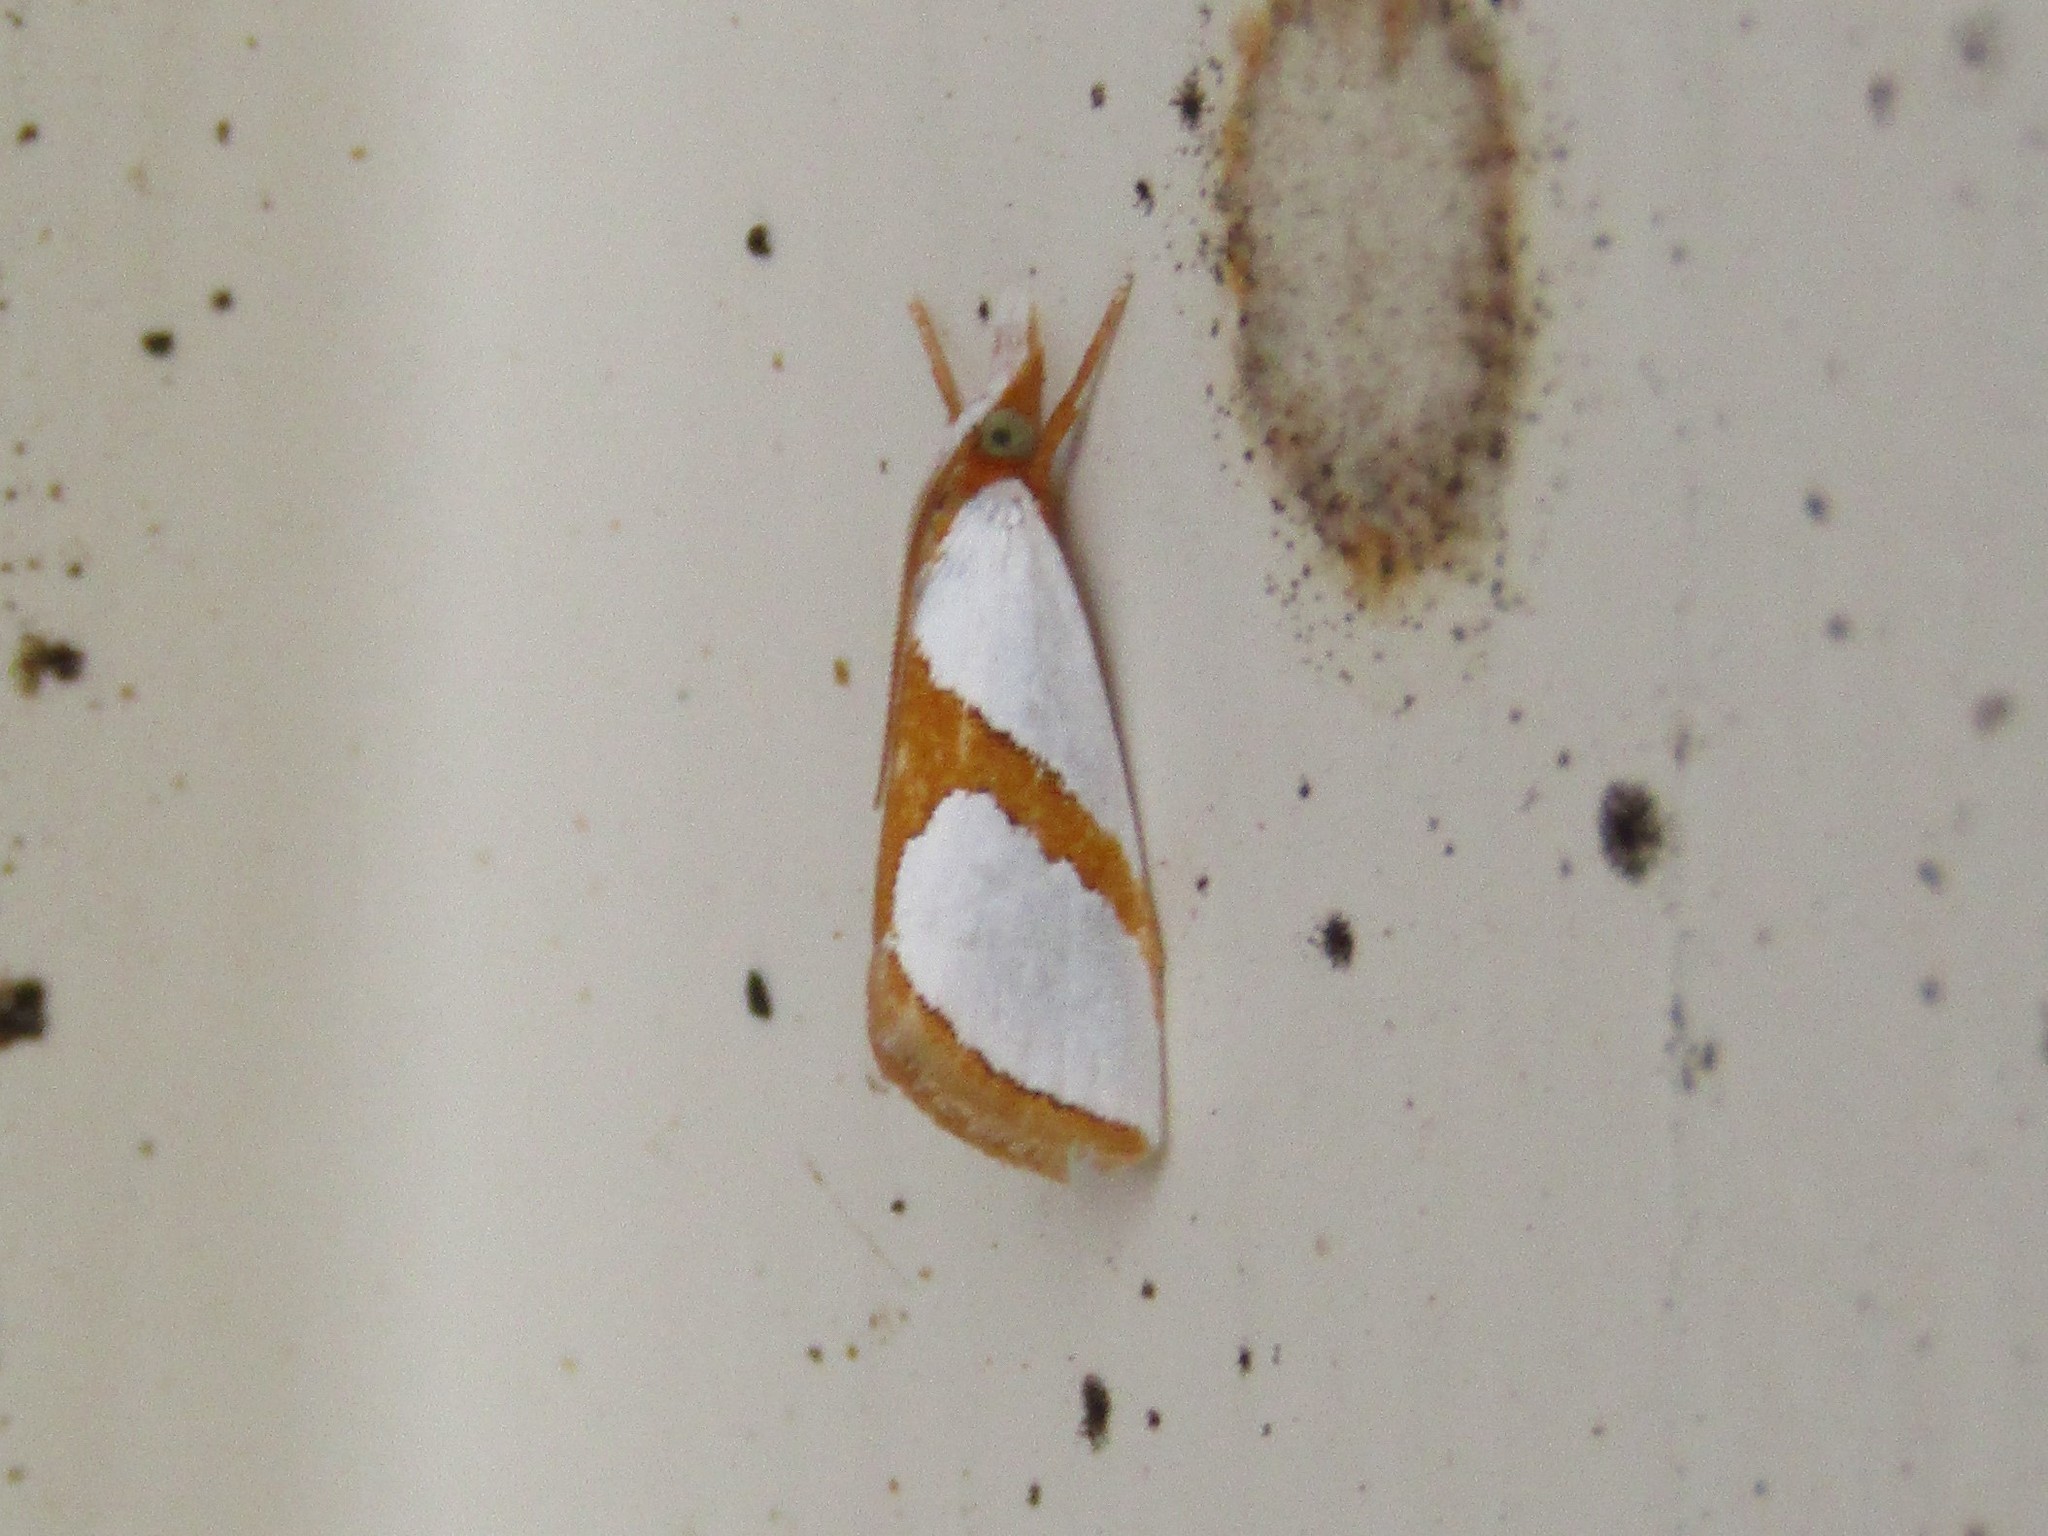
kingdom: Animalia
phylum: Arthropoda
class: Insecta
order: Lepidoptera
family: Crambidae
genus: Argyria
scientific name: Argyria auratella
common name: Curve-lined argyria moth
